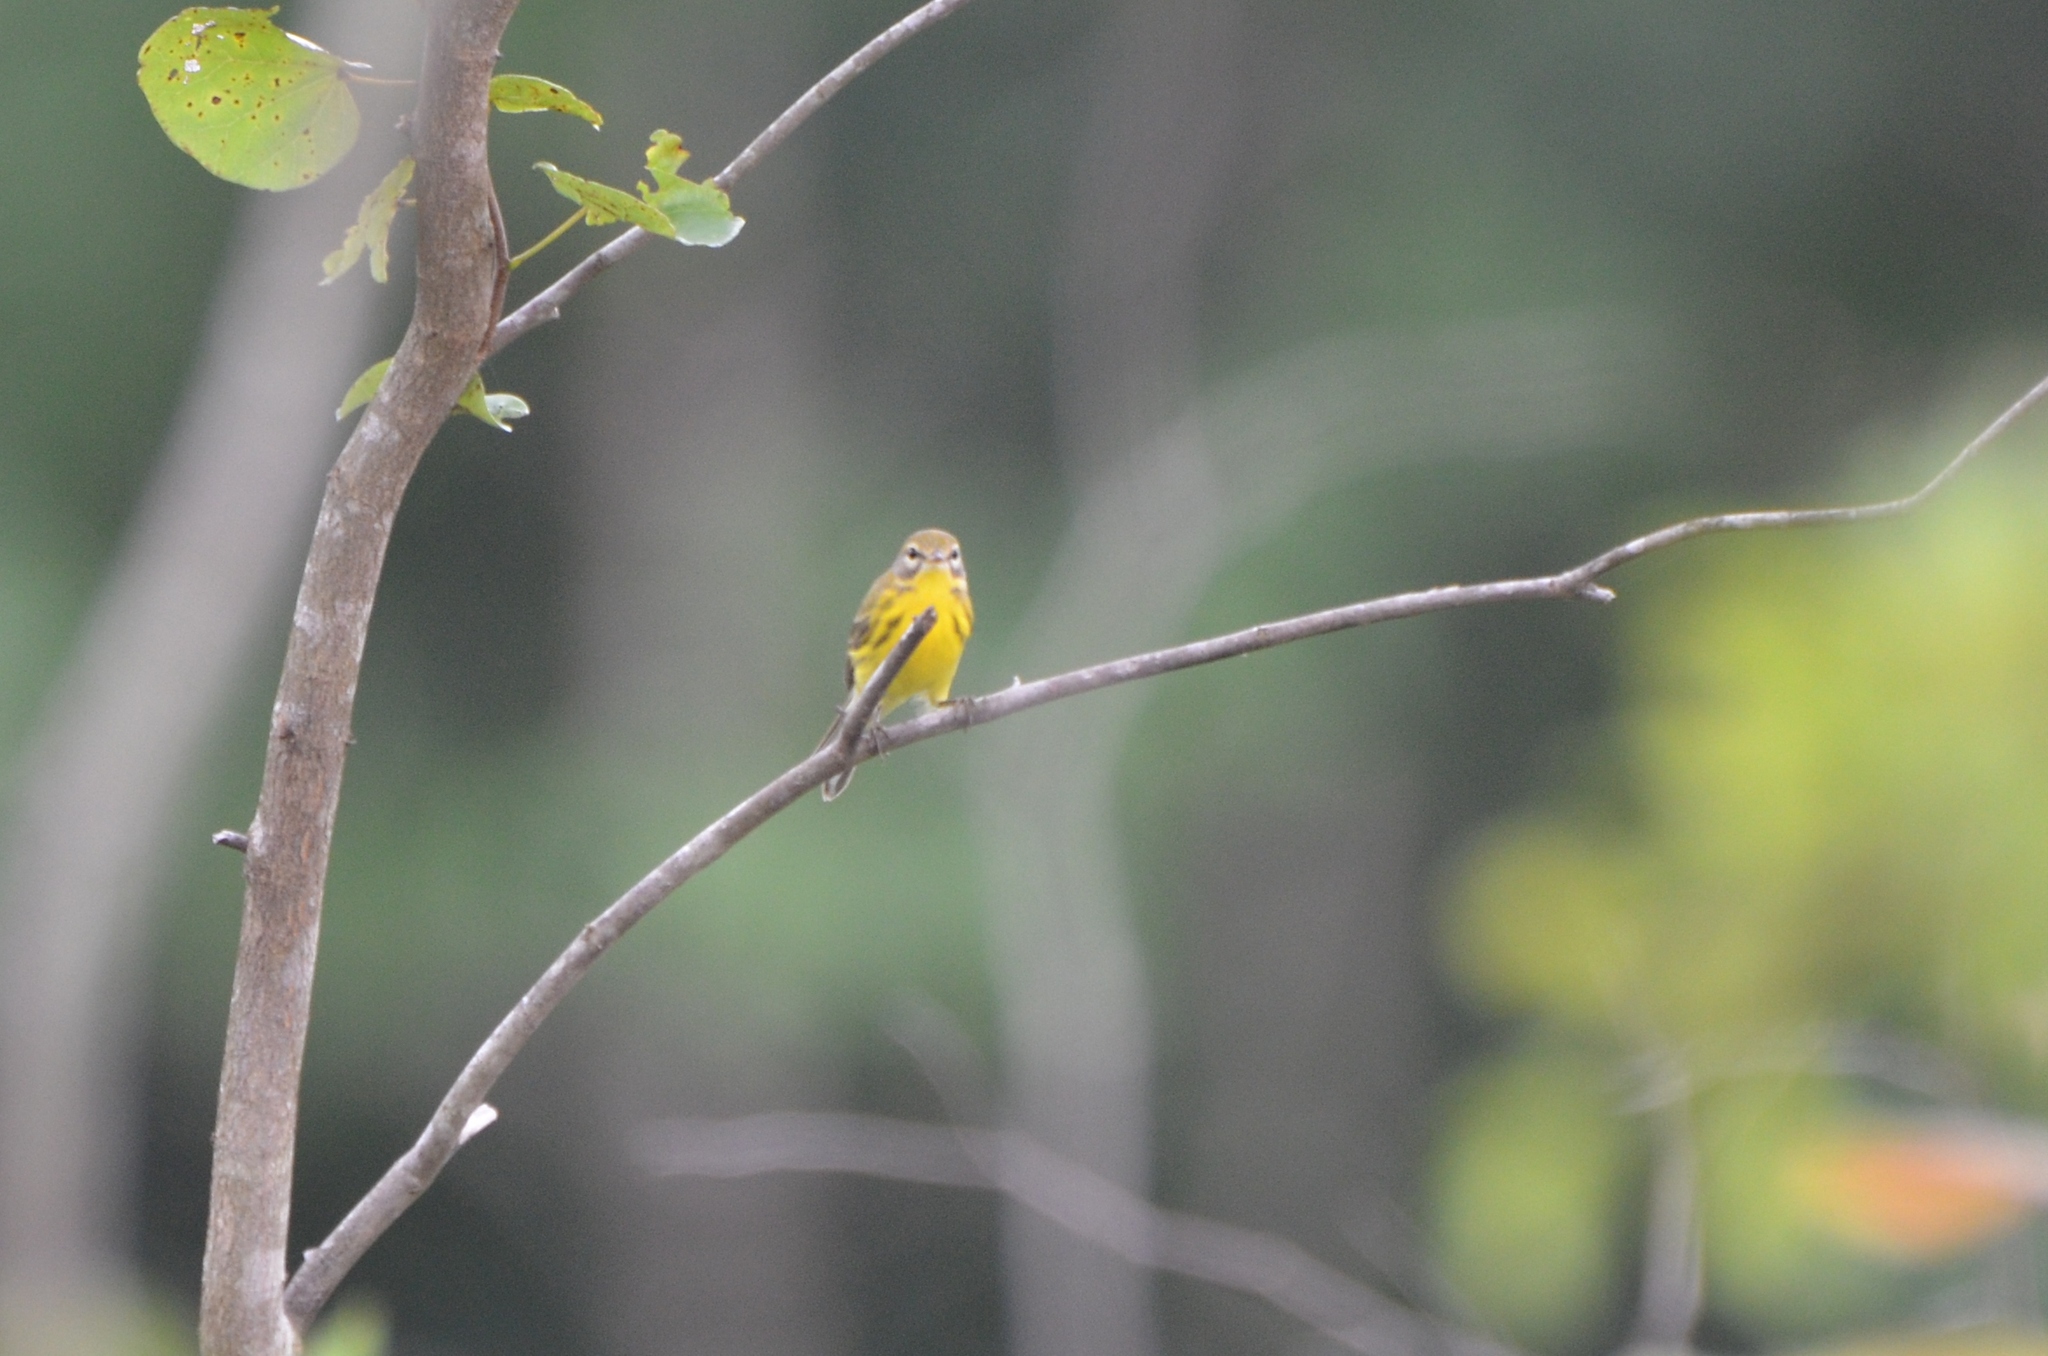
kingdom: Animalia
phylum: Chordata
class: Aves
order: Passeriformes
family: Parulidae
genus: Setophaga
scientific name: Setophaga discolor
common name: Prairie warbler
